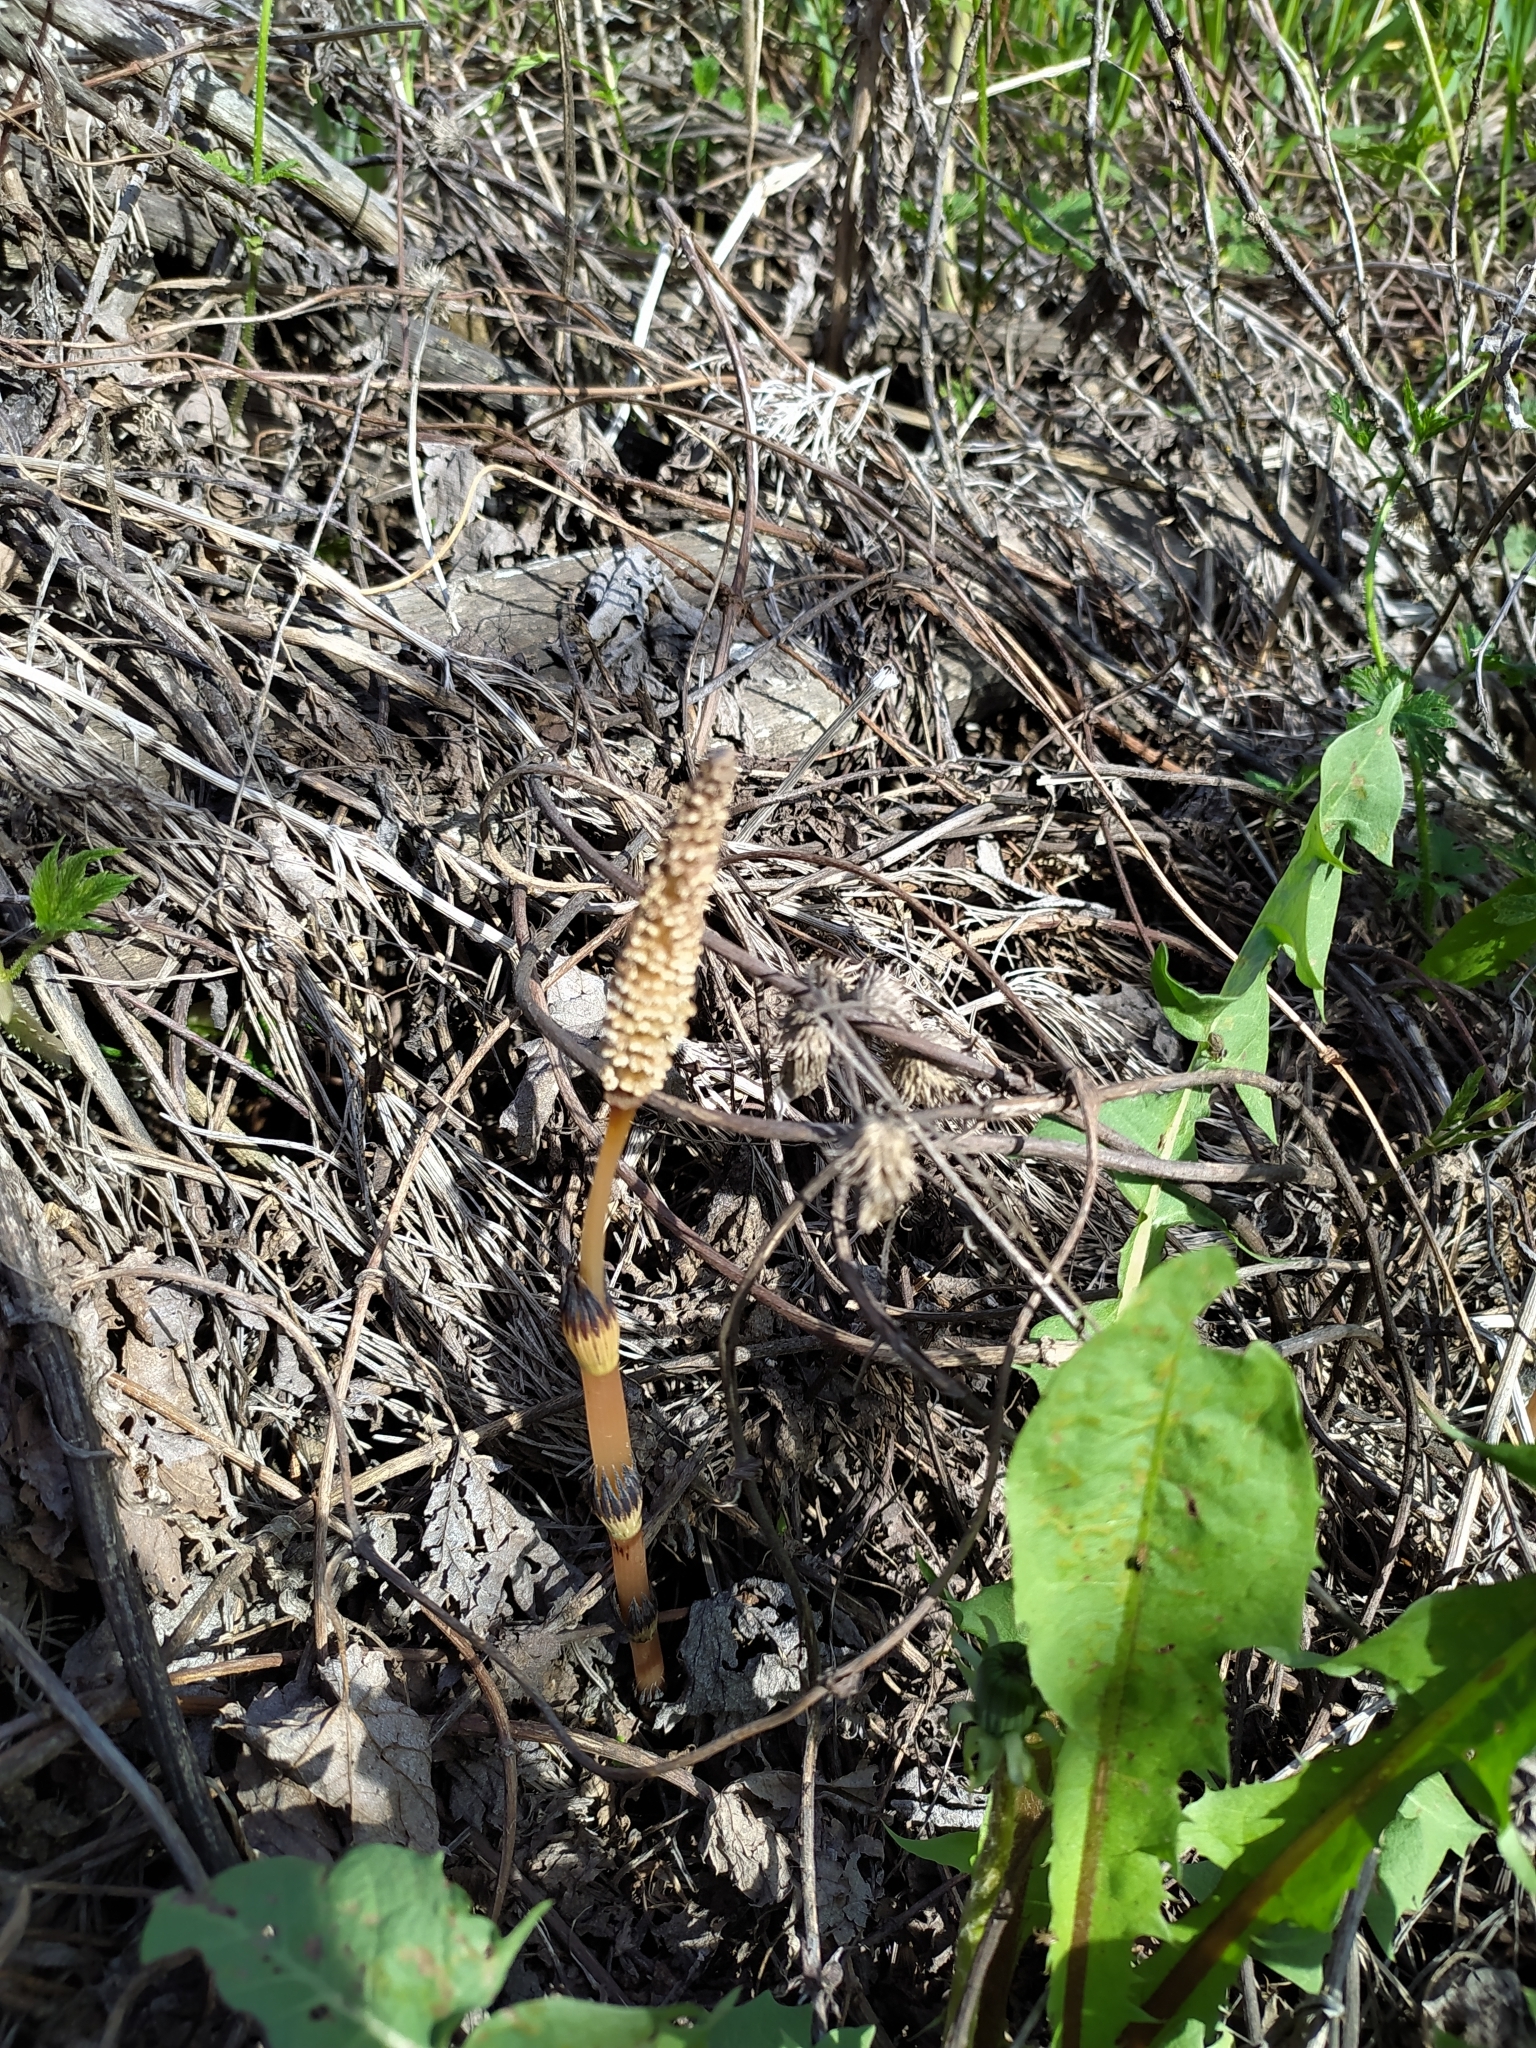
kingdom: Plantae
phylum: Tracheophyta
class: Polypodiopsida
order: Equisetales
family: Equisetaceae
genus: Equisetum
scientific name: Equisetum arvense
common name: Field horsetail
